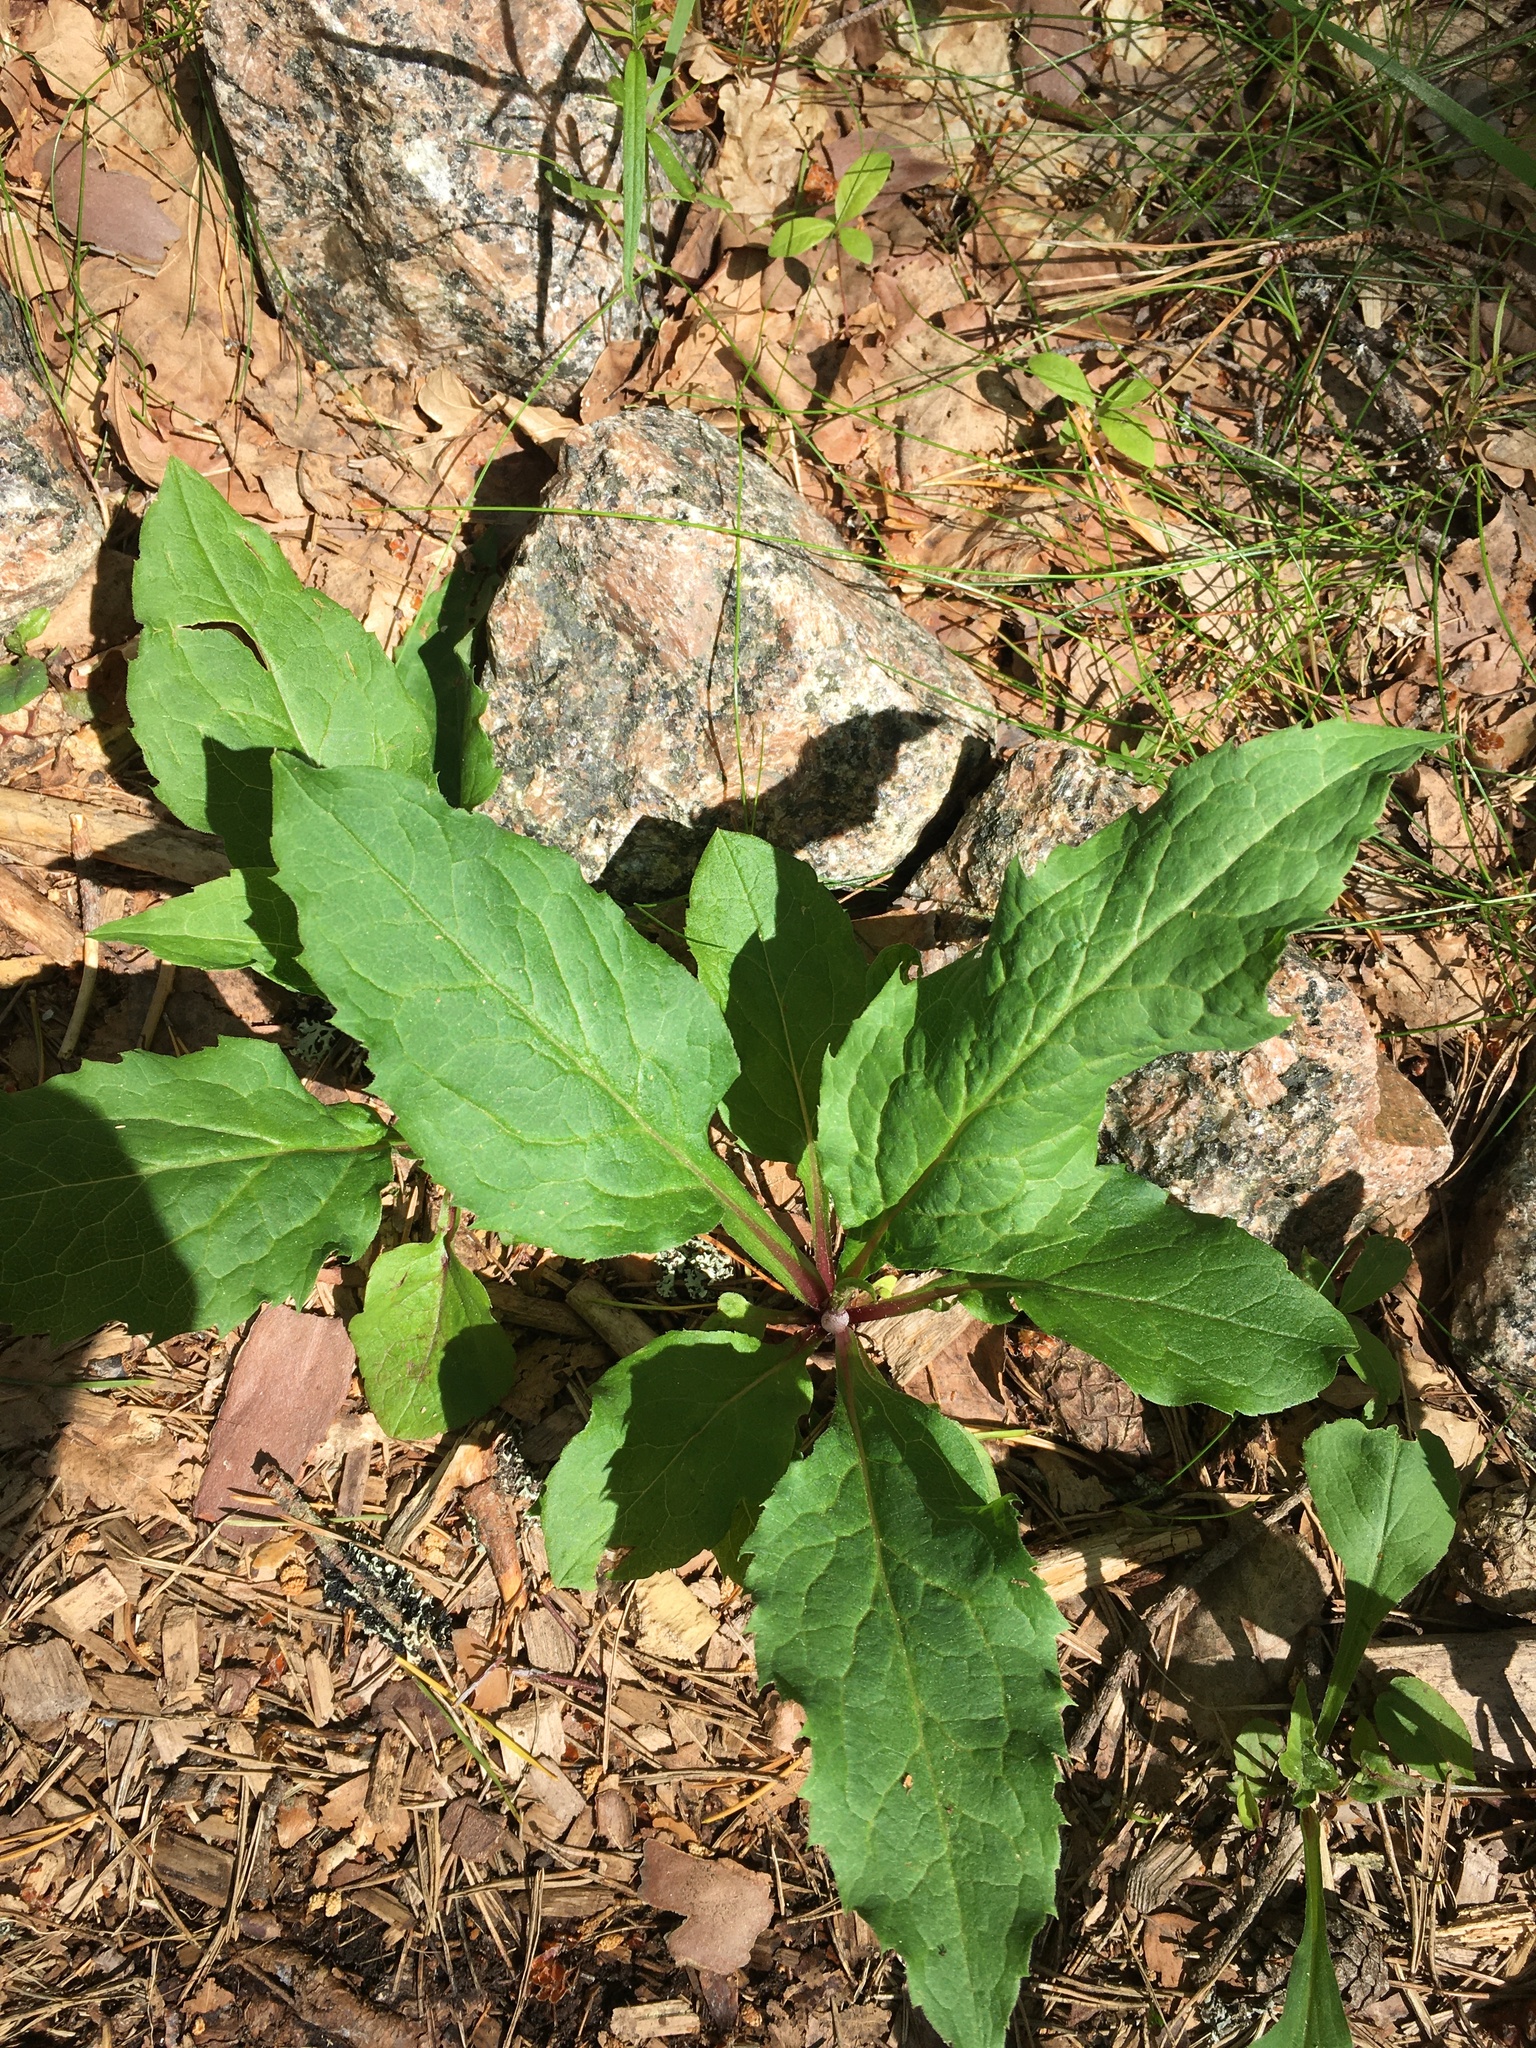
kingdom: Plantae
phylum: Tracheophyta
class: Magnoliopsida
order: Asterales
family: Asteraceae
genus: Solidago
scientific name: Solidago virgaurea
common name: Goldenrod
